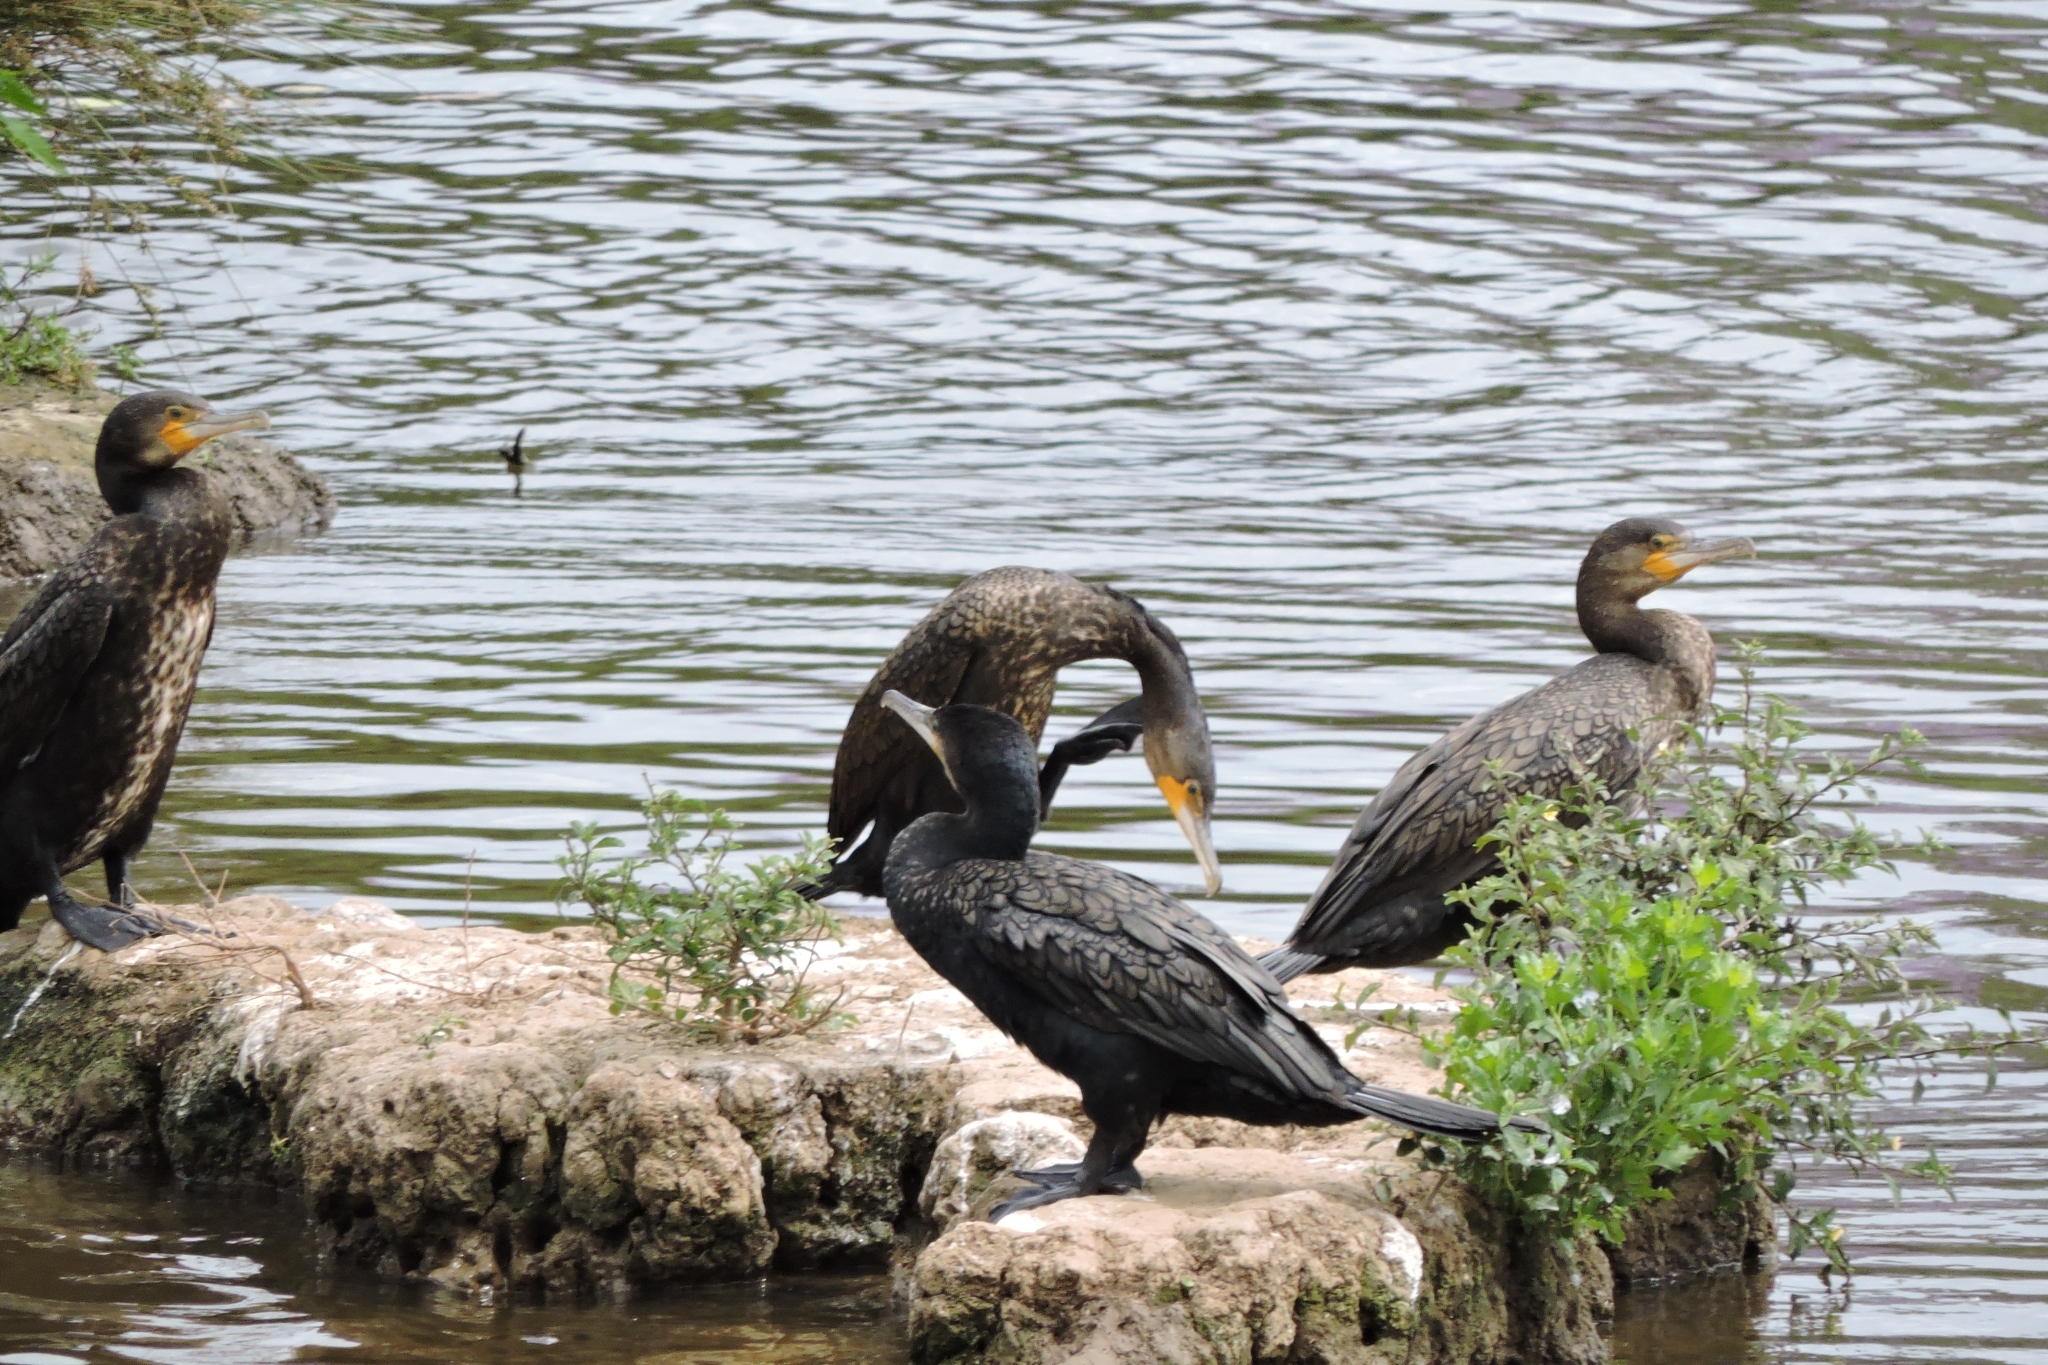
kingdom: Animalia
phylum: Chordata
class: Aves
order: Suliformes
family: Phalacrocoracidae
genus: Phalacrocorax
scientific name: Phalacrocorax carbo
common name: Great cormorant
